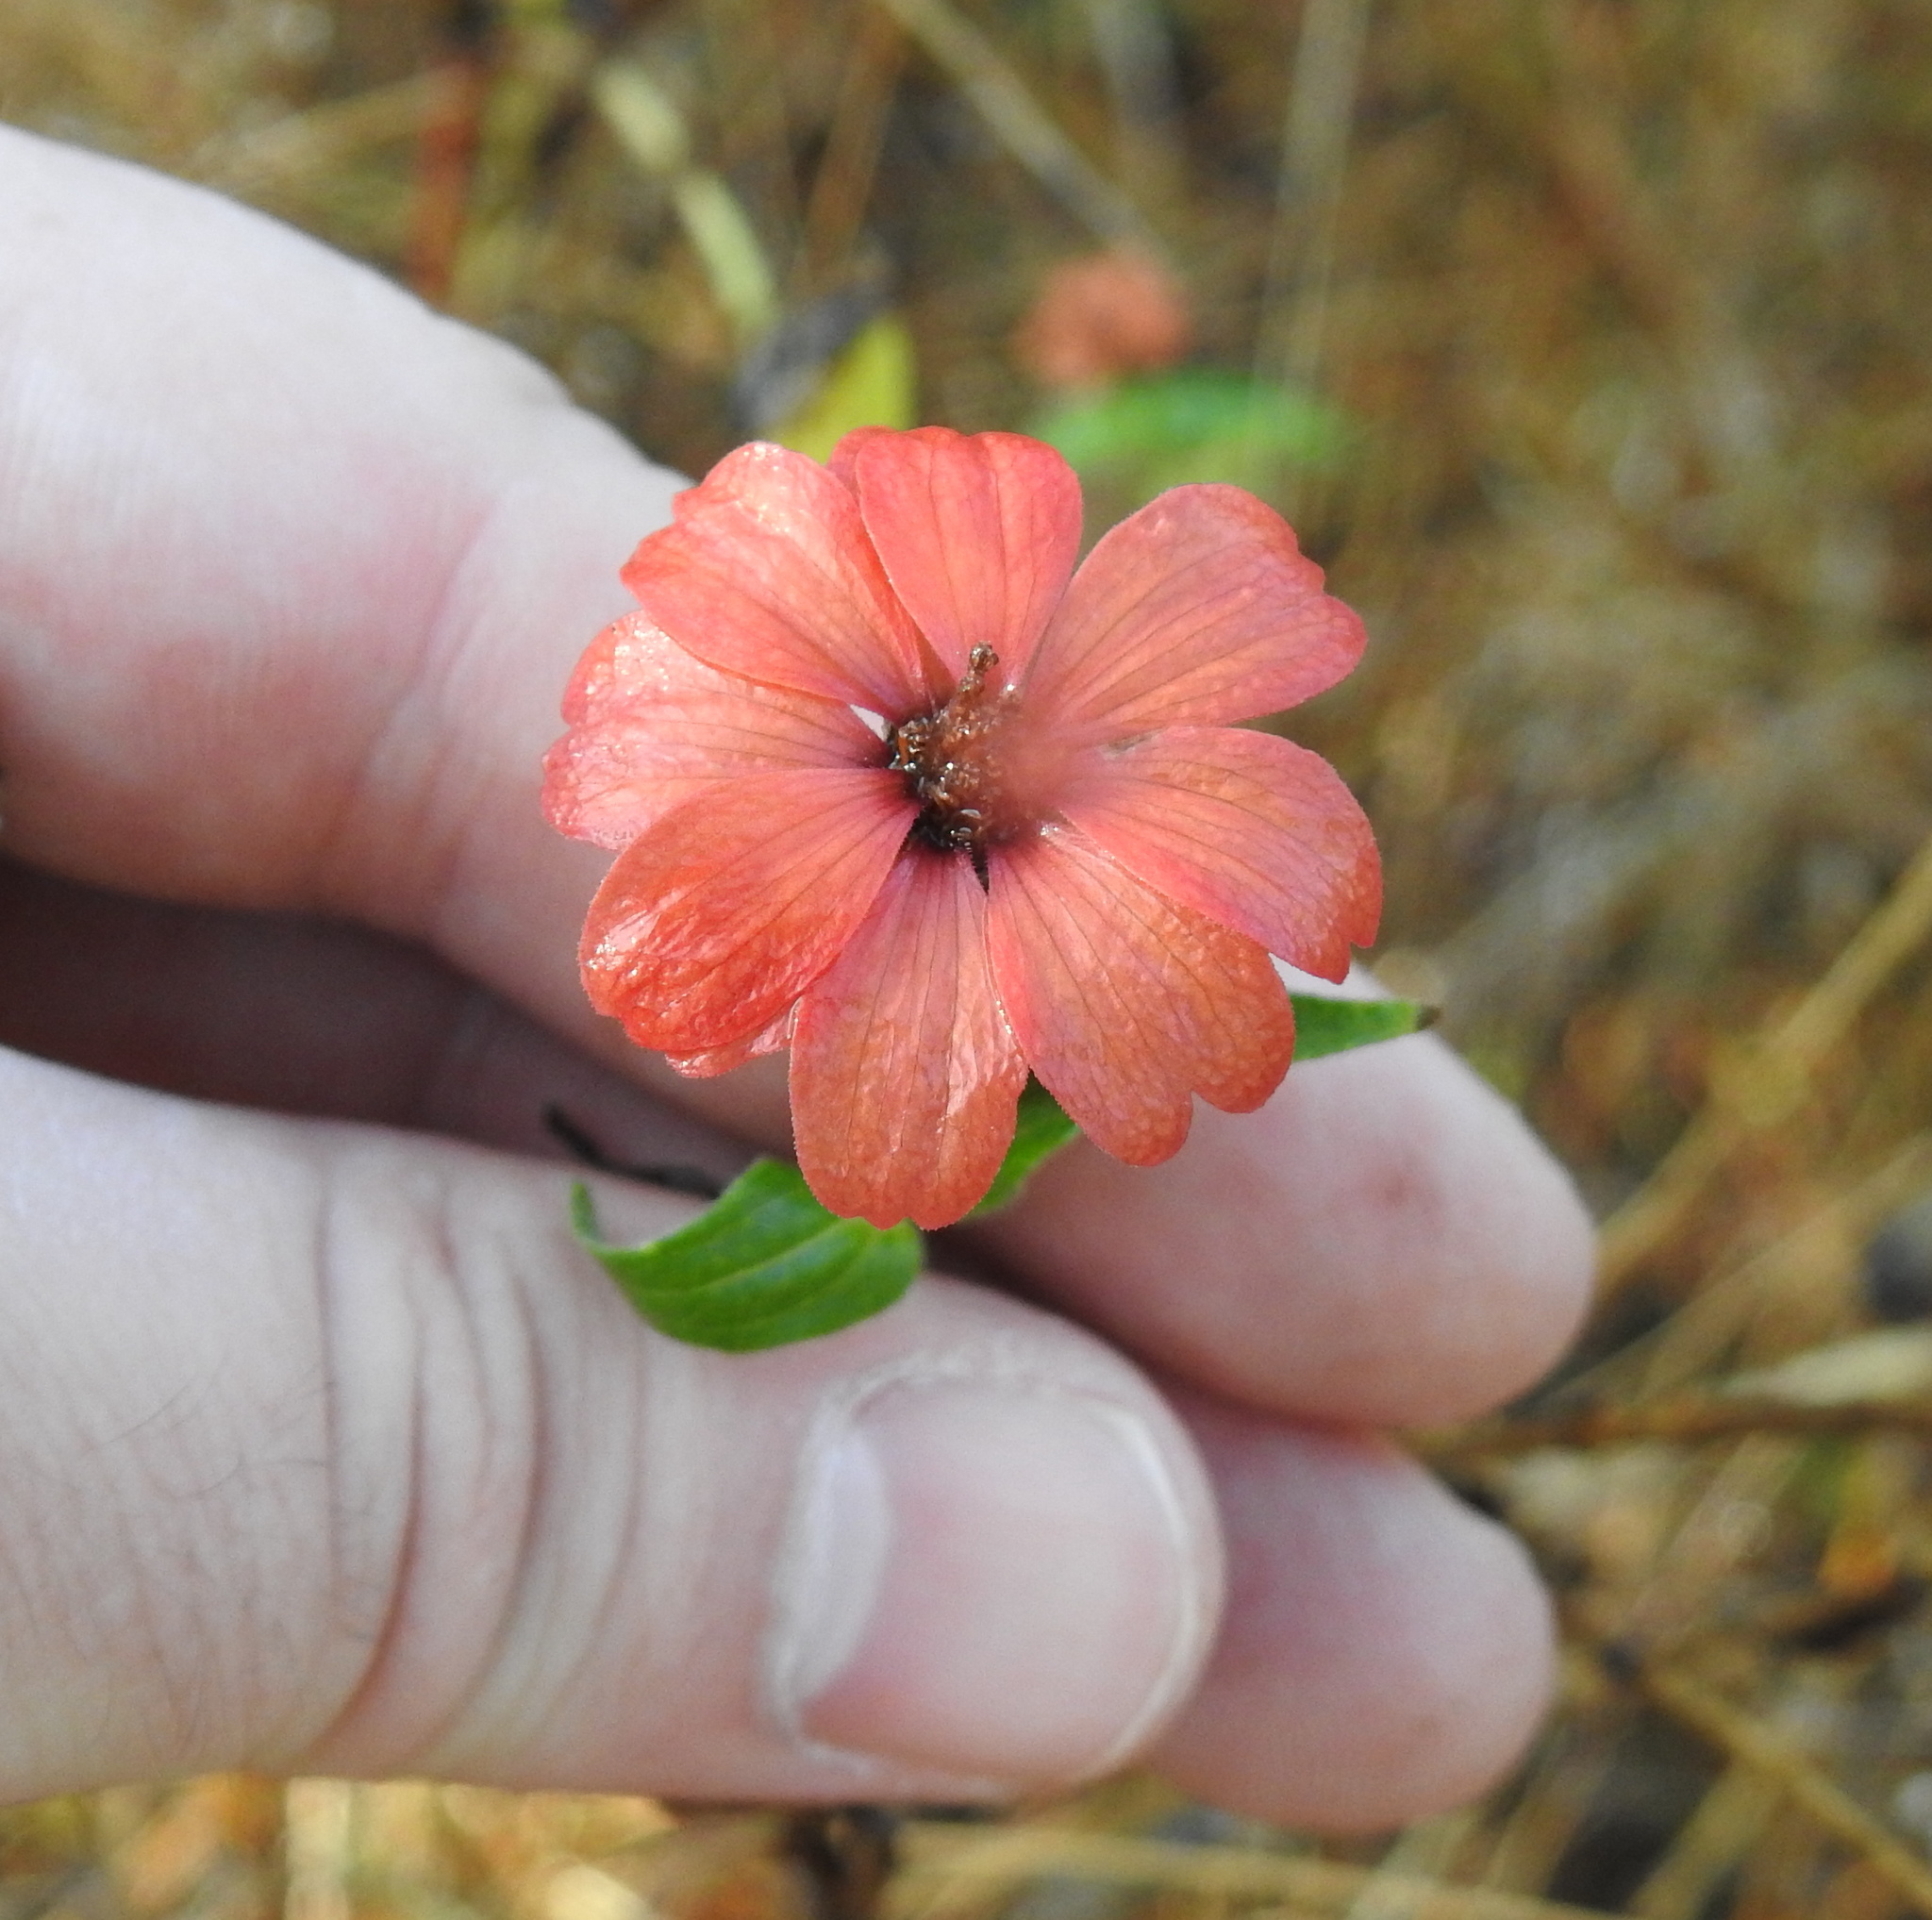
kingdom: Plantae
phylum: Tracheophyta
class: Magnoliopsida
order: Asterales
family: Asteraceae
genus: Zinnia
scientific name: Zinnia peruviana
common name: Peruvian zinnia
